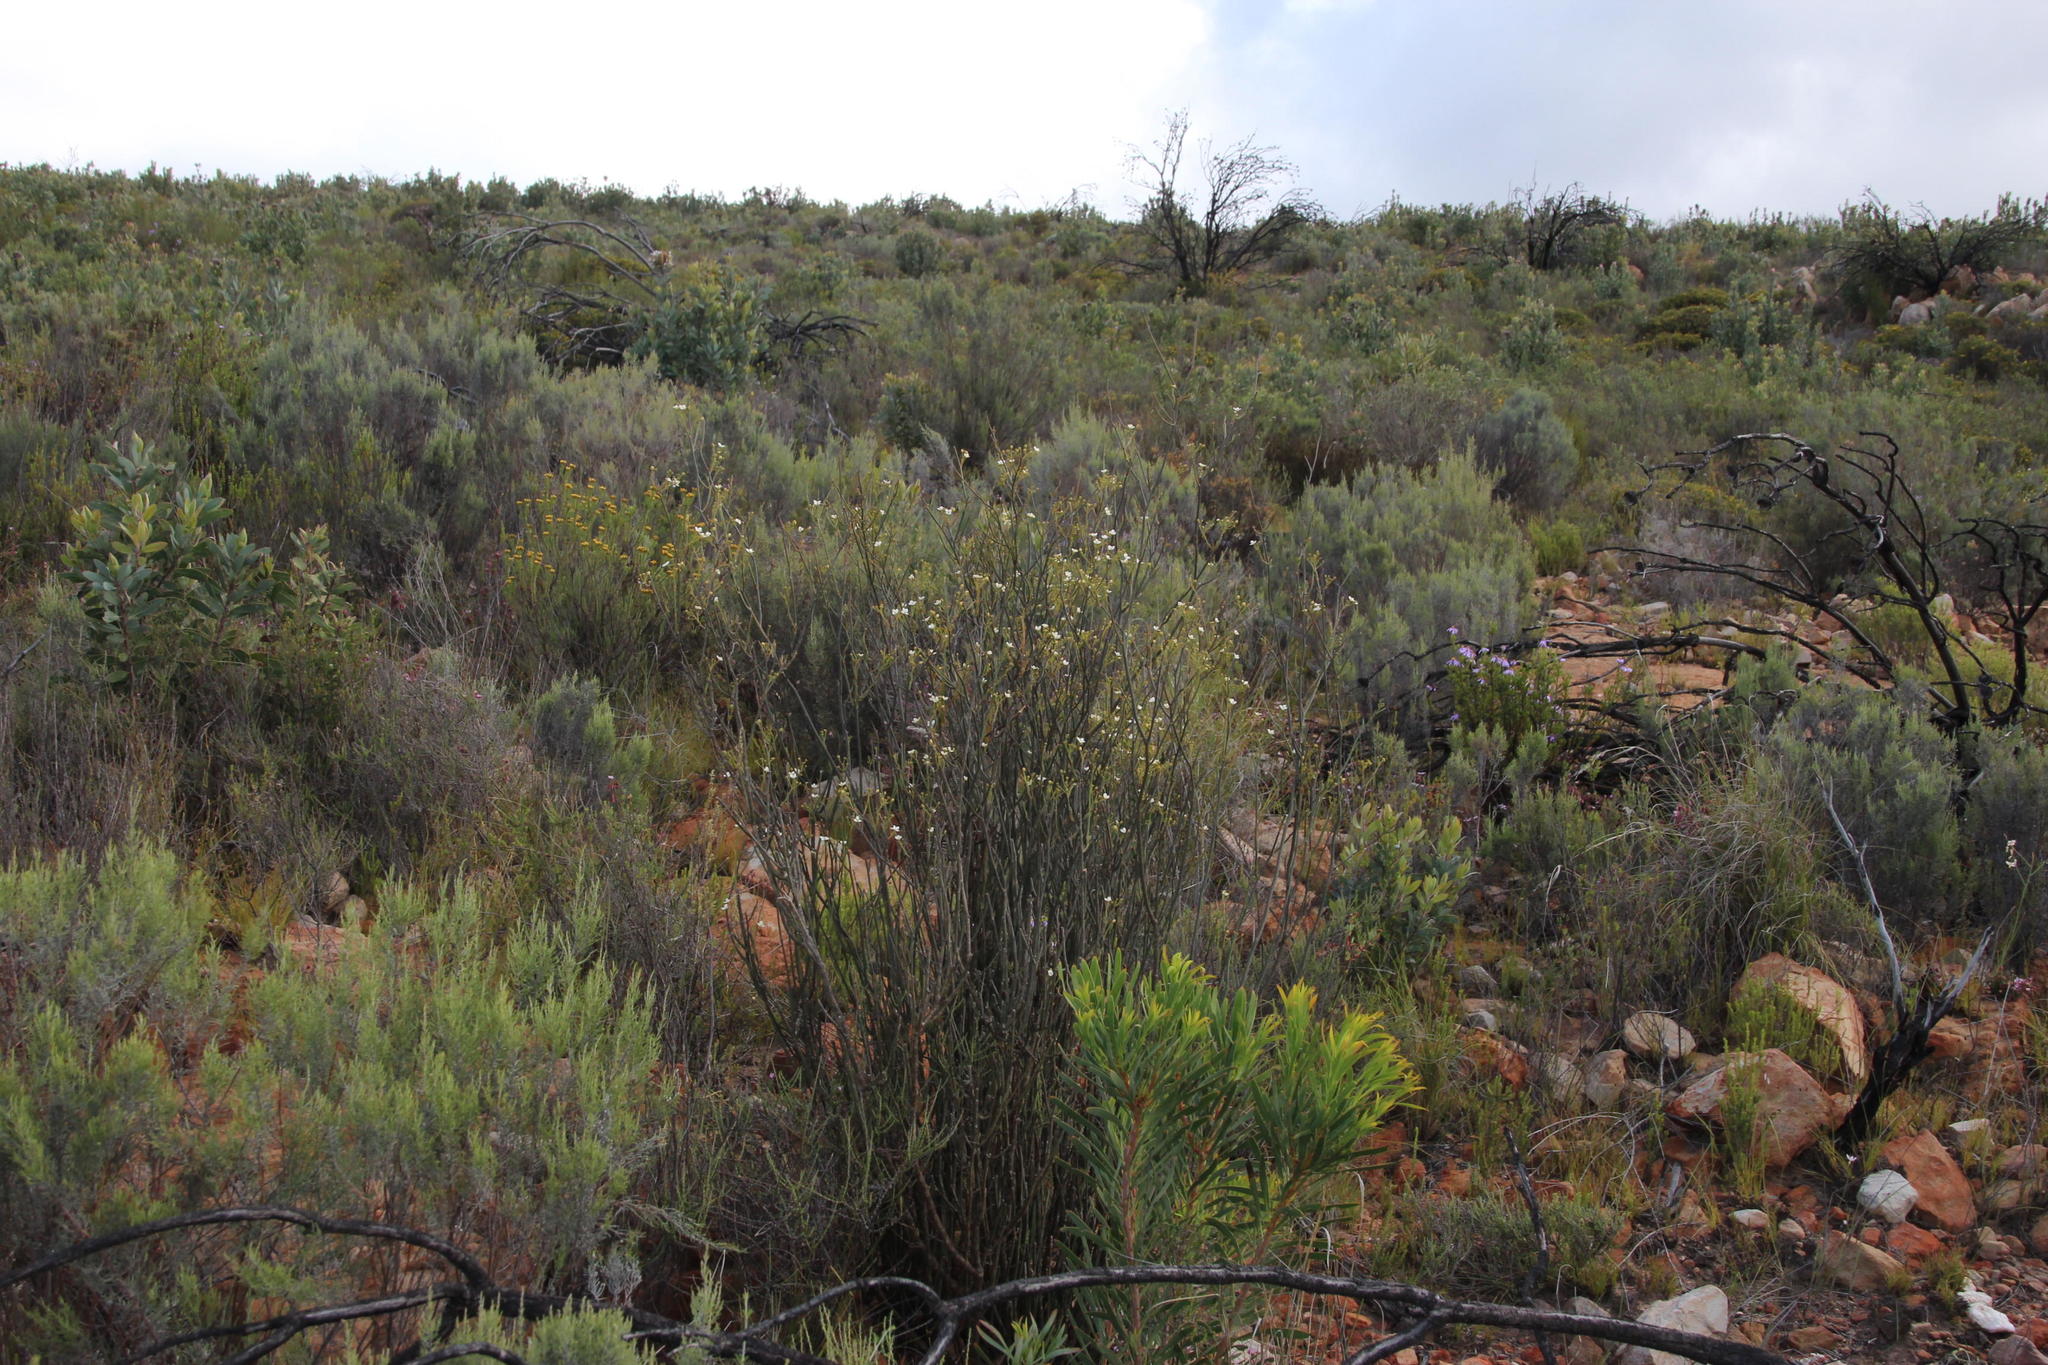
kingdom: Plantae
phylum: Tracheophyta
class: Magnoliopsida
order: Solanales
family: Montiniaceae
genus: Montinia
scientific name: Montinia caryophyllacea
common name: Wild clove-bush
